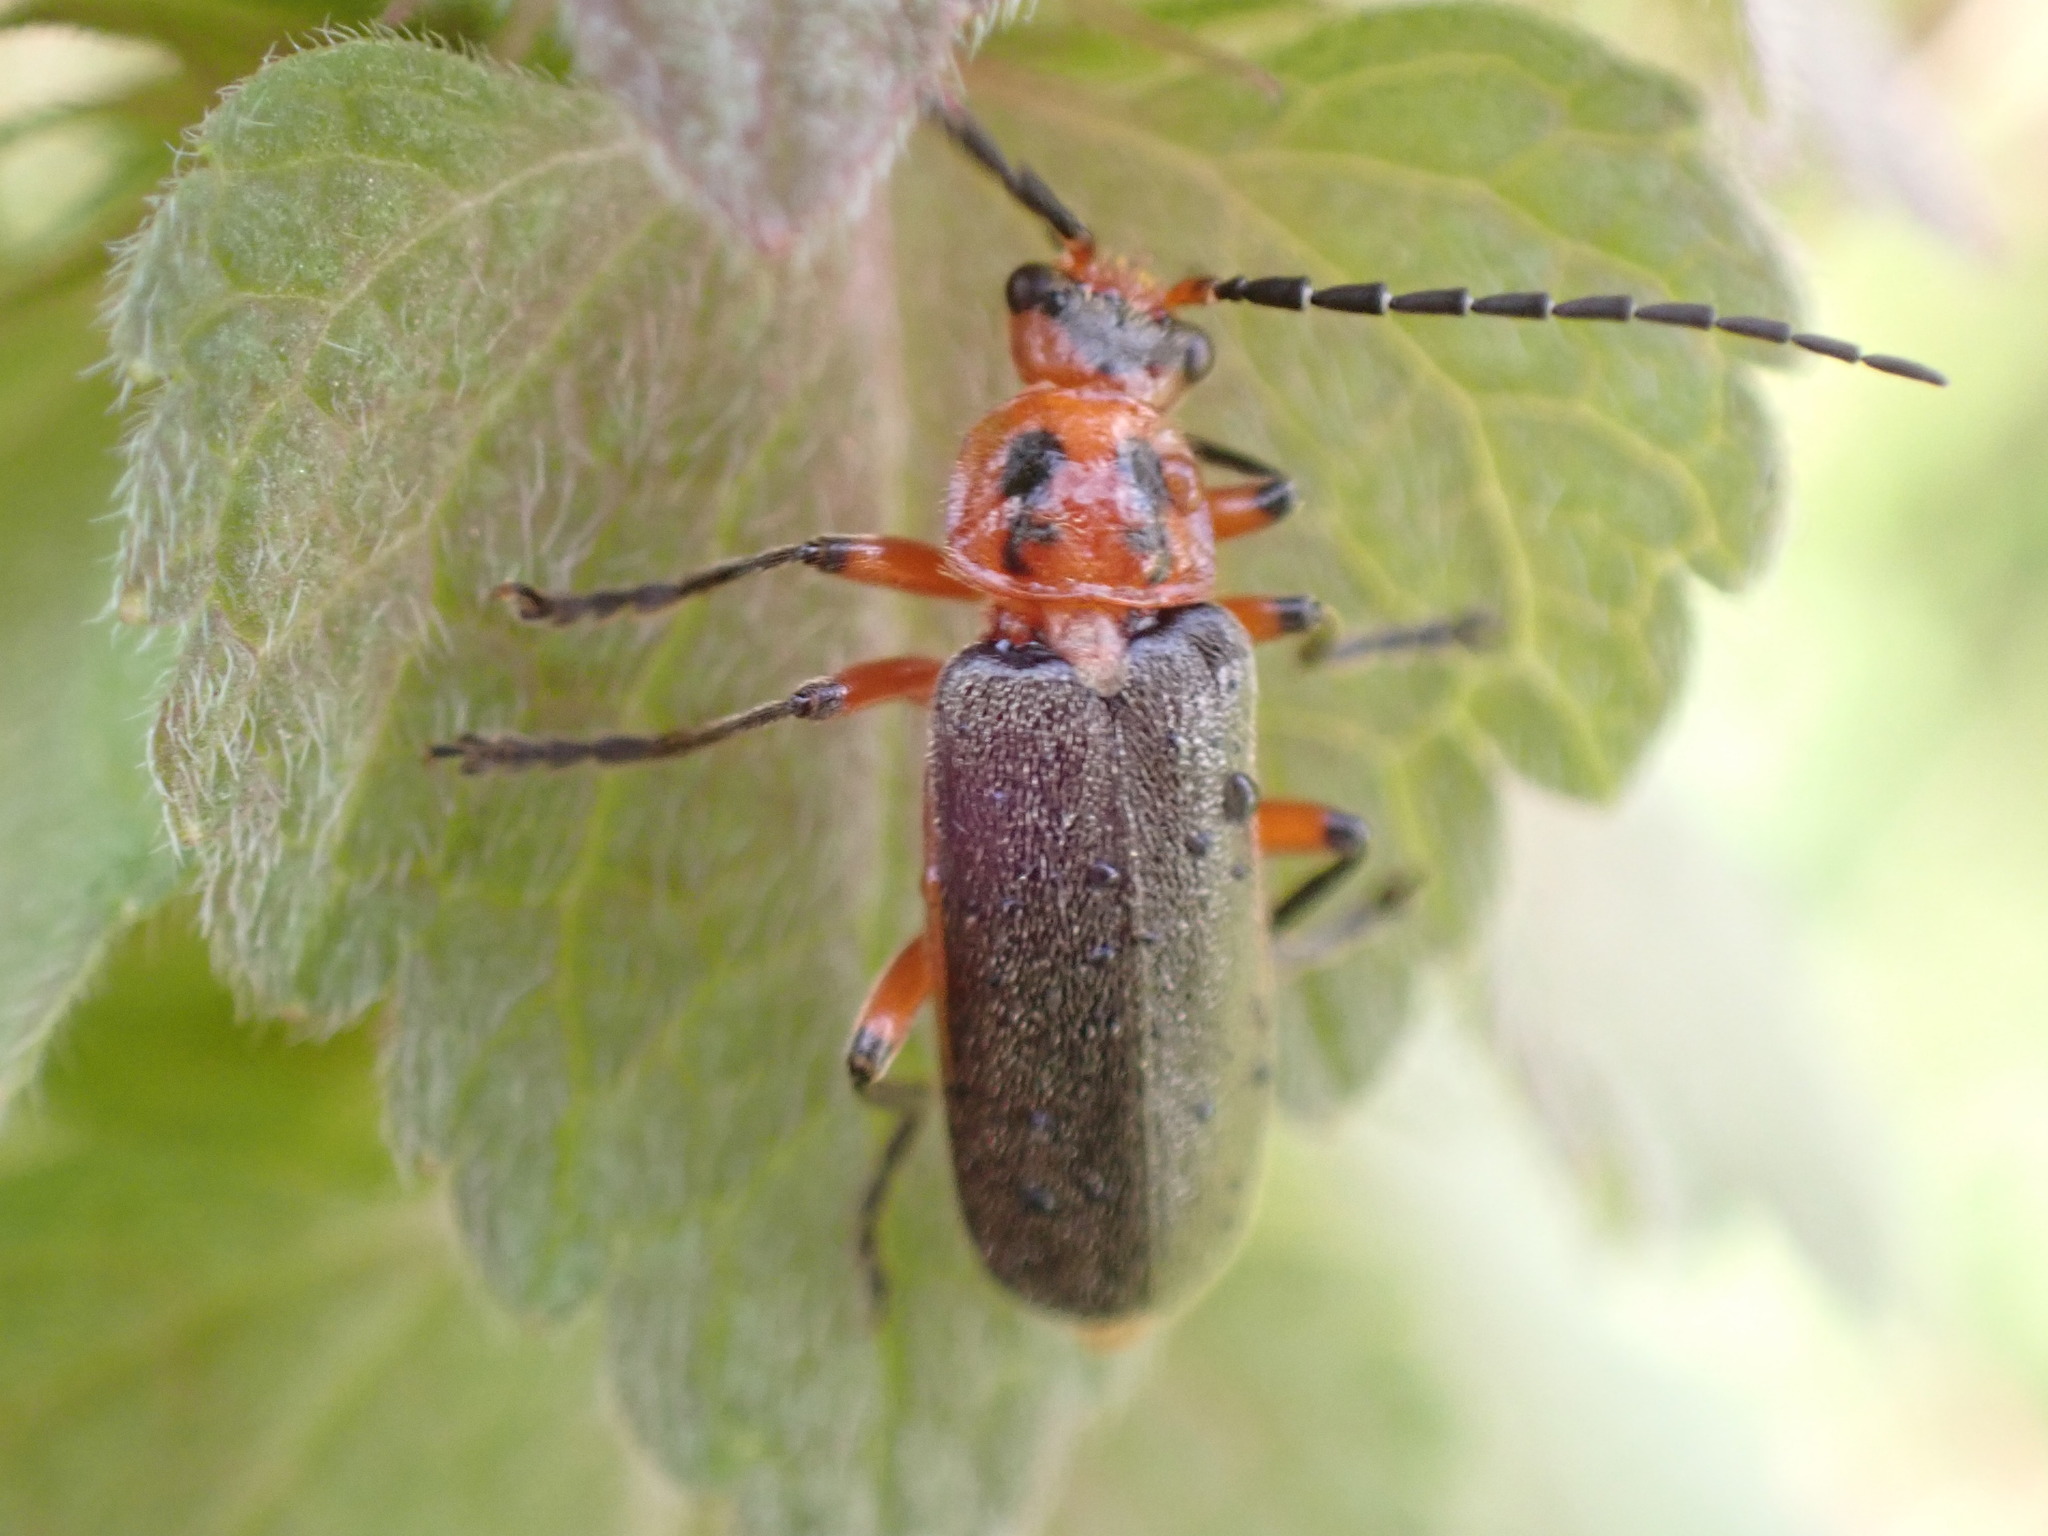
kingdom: Animalia
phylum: Arthropoda
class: Insecta
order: Coleoptera
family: Cantharidae
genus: Atalantycha
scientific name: Atalantycha bilineata
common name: Two-lined leatherwing
